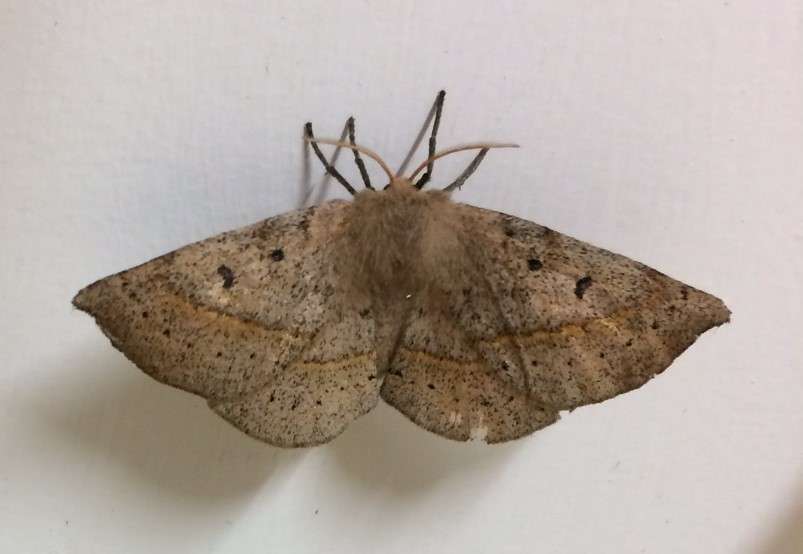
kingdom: Animalia
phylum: Arthropoda
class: Insecta
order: Lepidoptera
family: Anthelidae
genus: Anthela
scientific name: Anthela acuta
